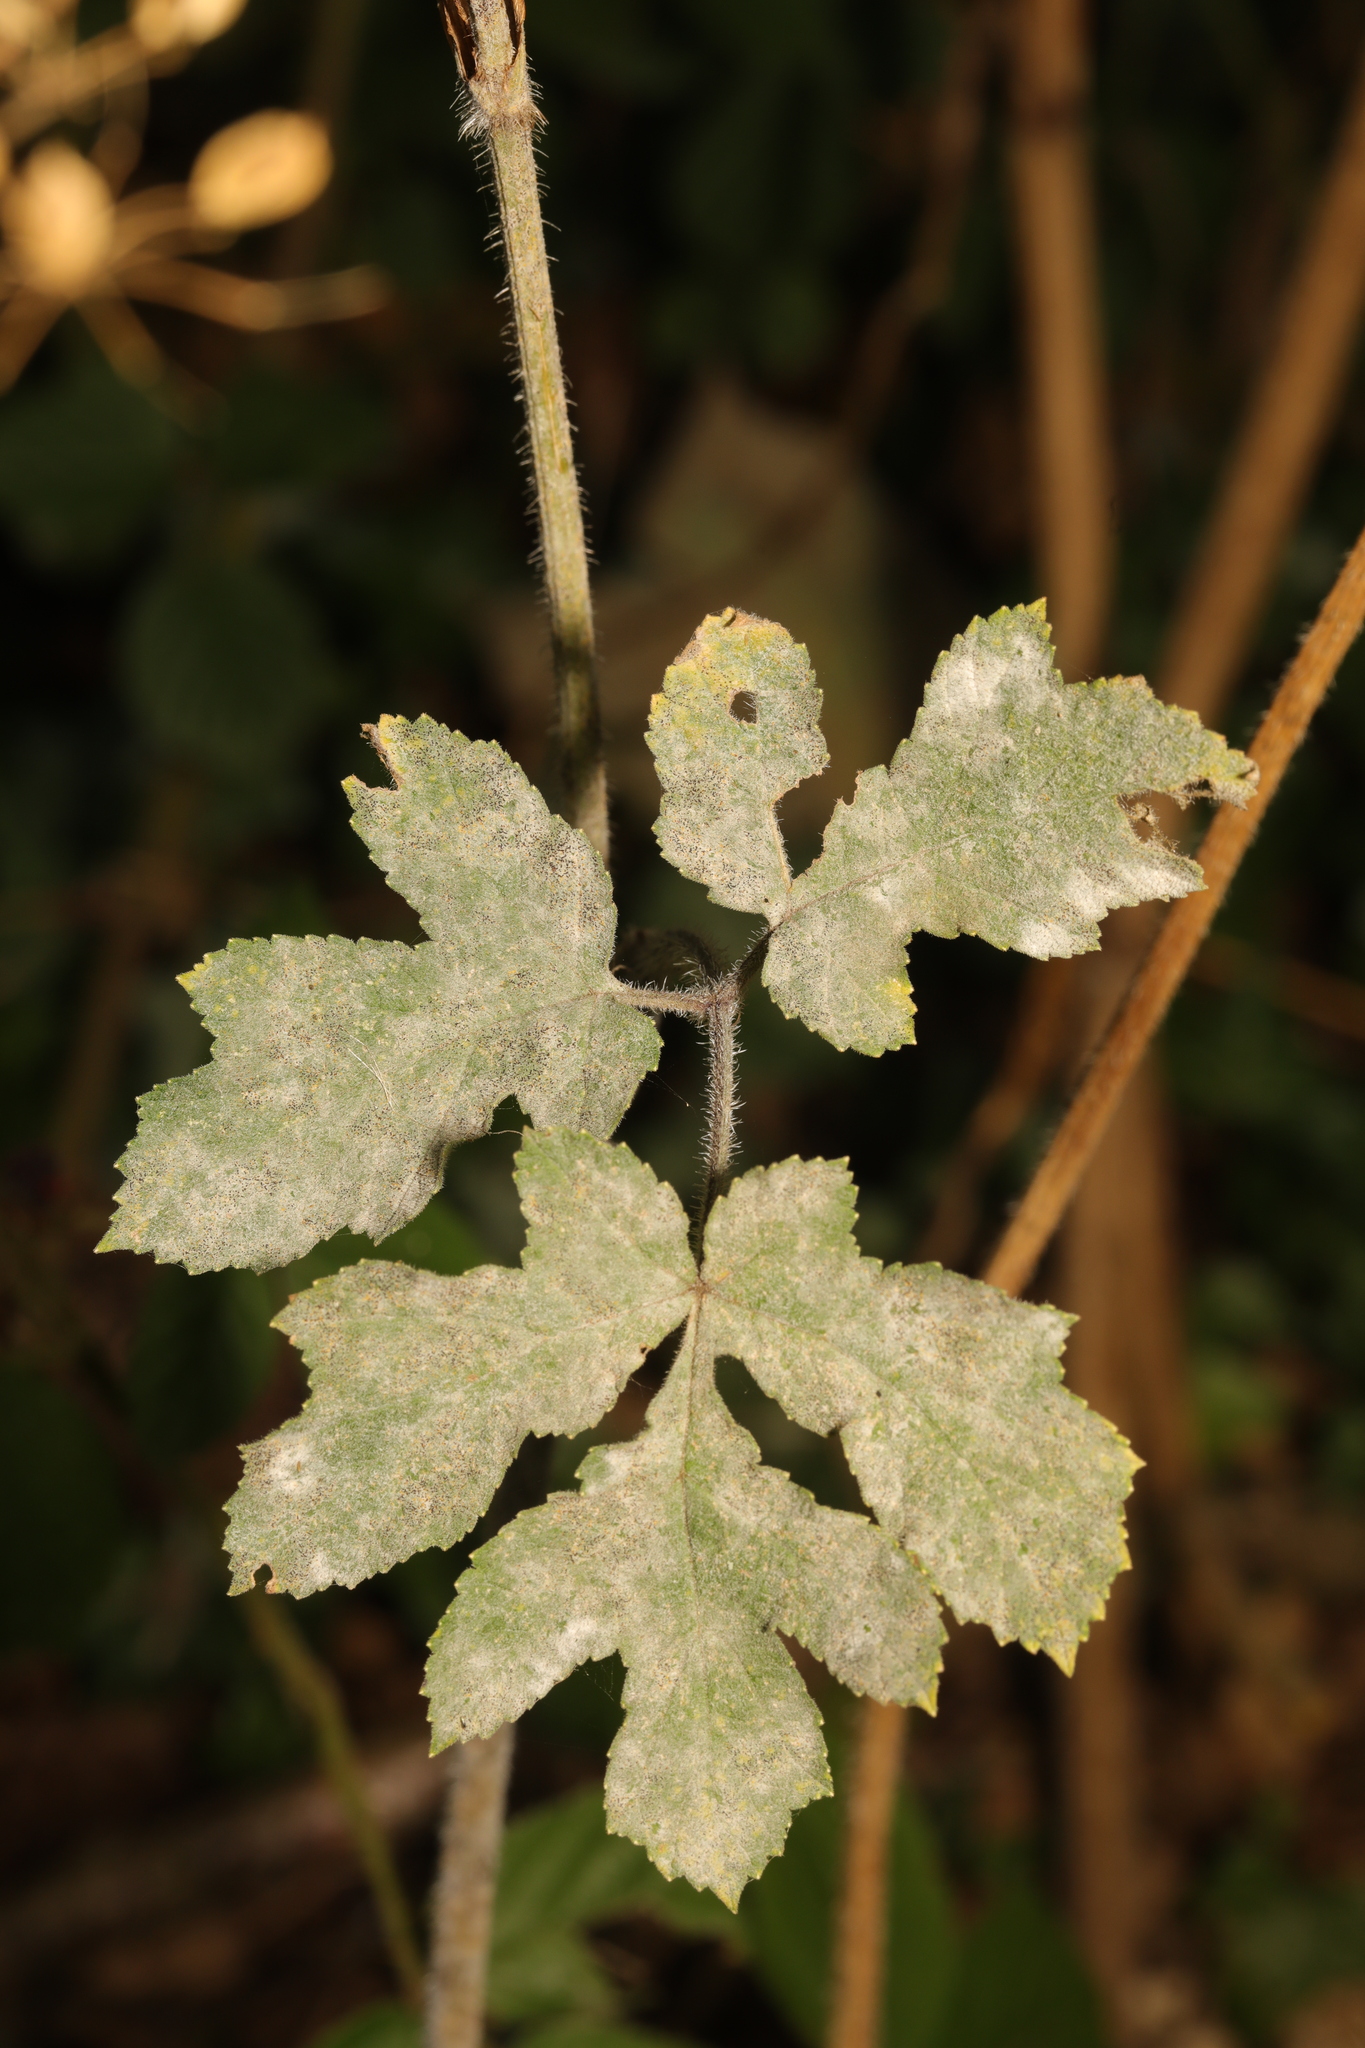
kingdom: Fungi
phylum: Ascomycota
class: Leotiomycetes
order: Helotiales
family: Erysiphaceae
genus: Erysiphe
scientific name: Erysiphe heraclei
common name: Umbellifer mildew
